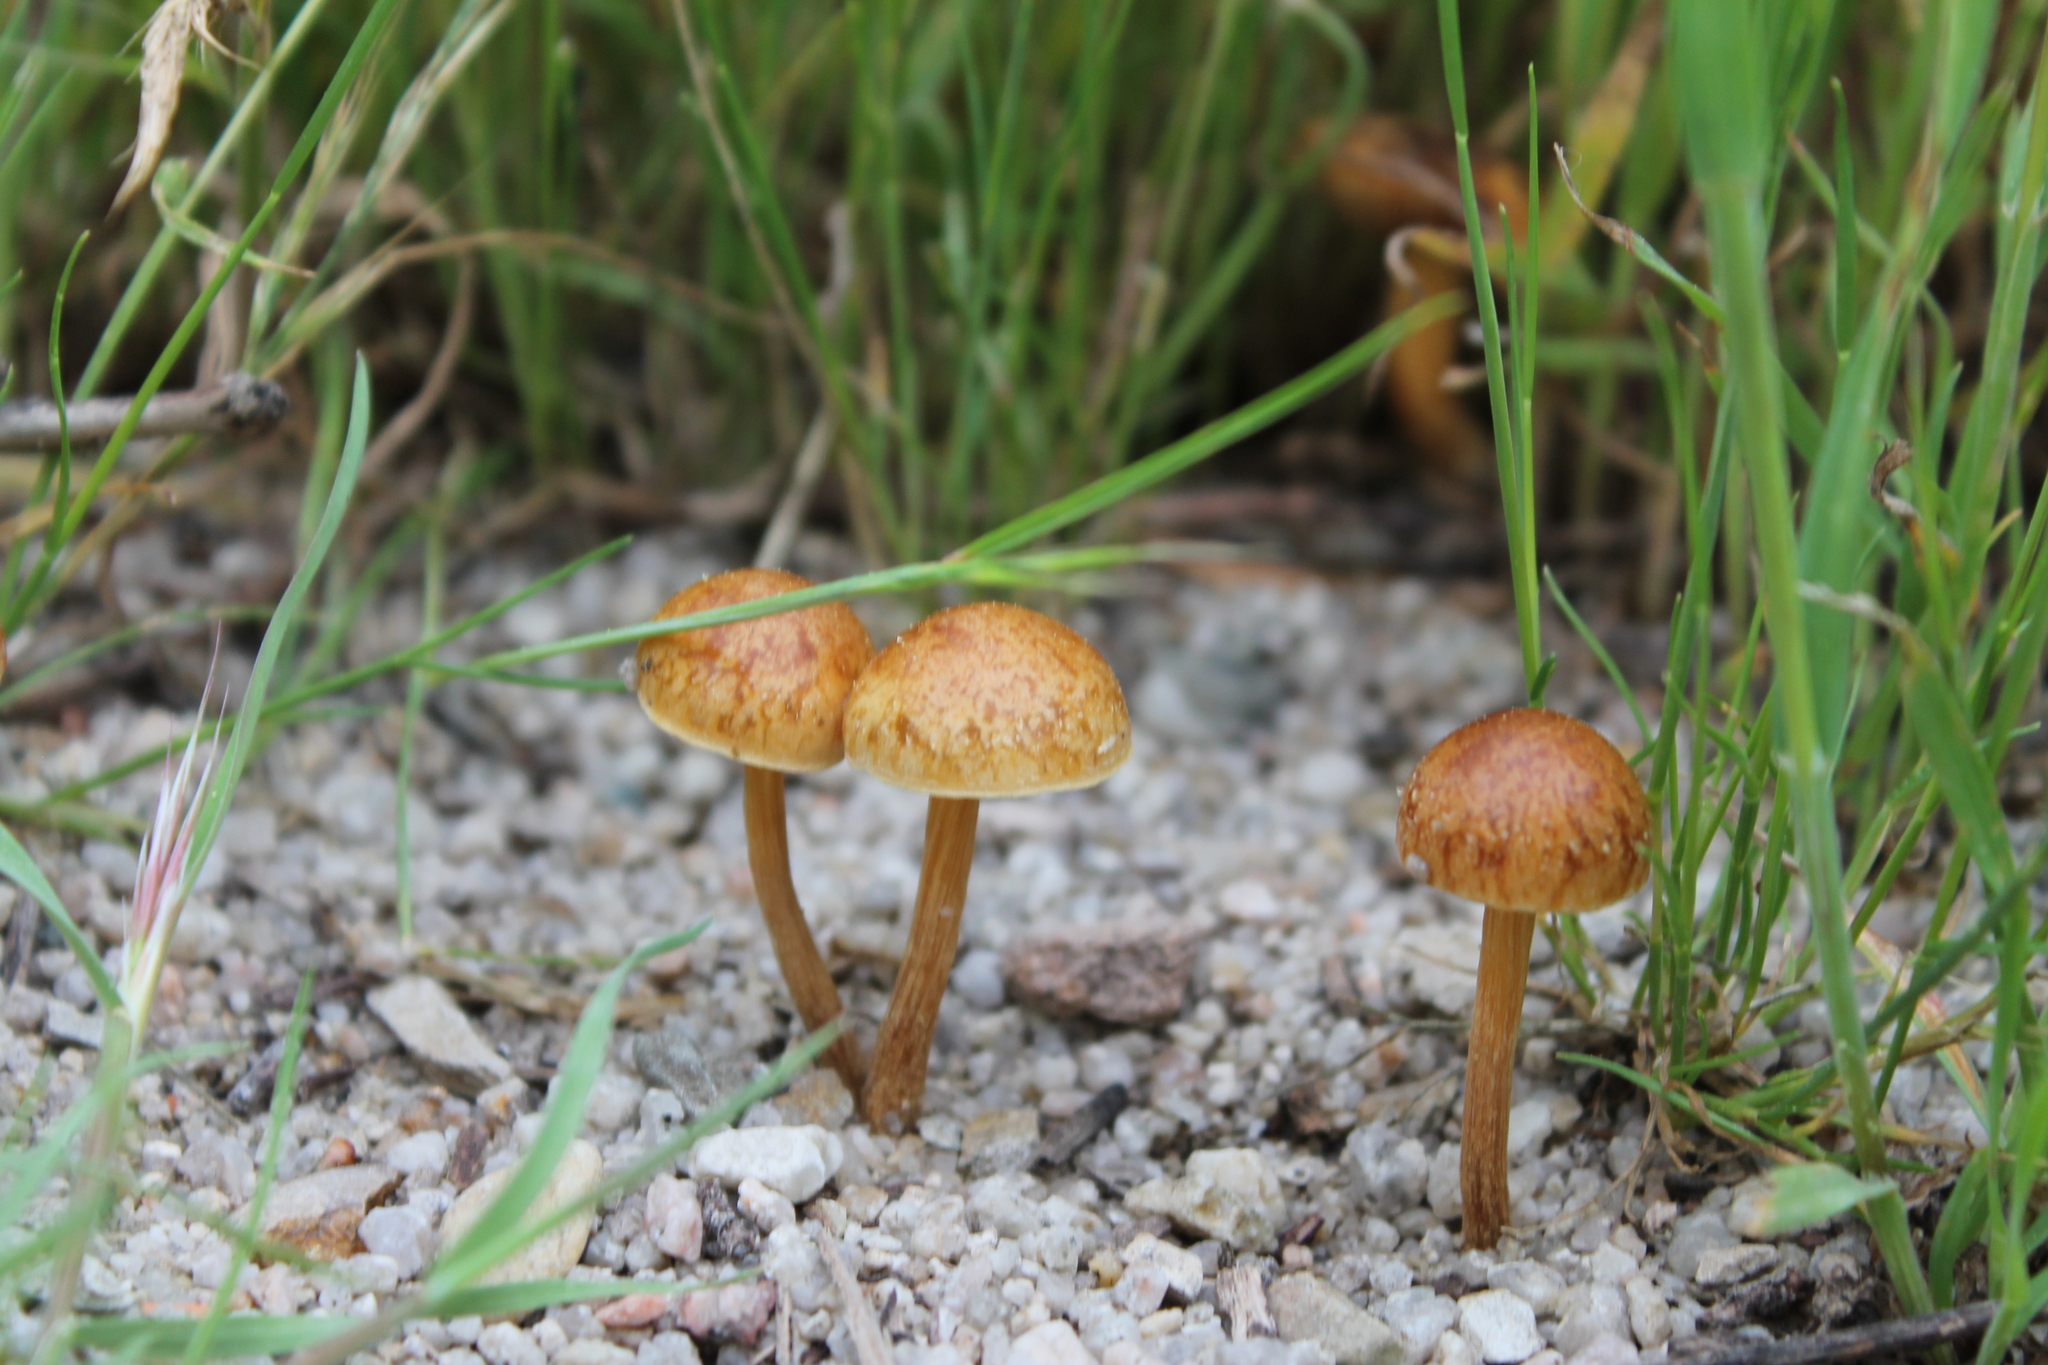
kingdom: Fungi
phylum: Basidiomycota
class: Agaricomycetes
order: Agaricales
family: Strophariaceae
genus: Agrocybe
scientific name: Agrocybe pediades
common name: Common fieldcap
